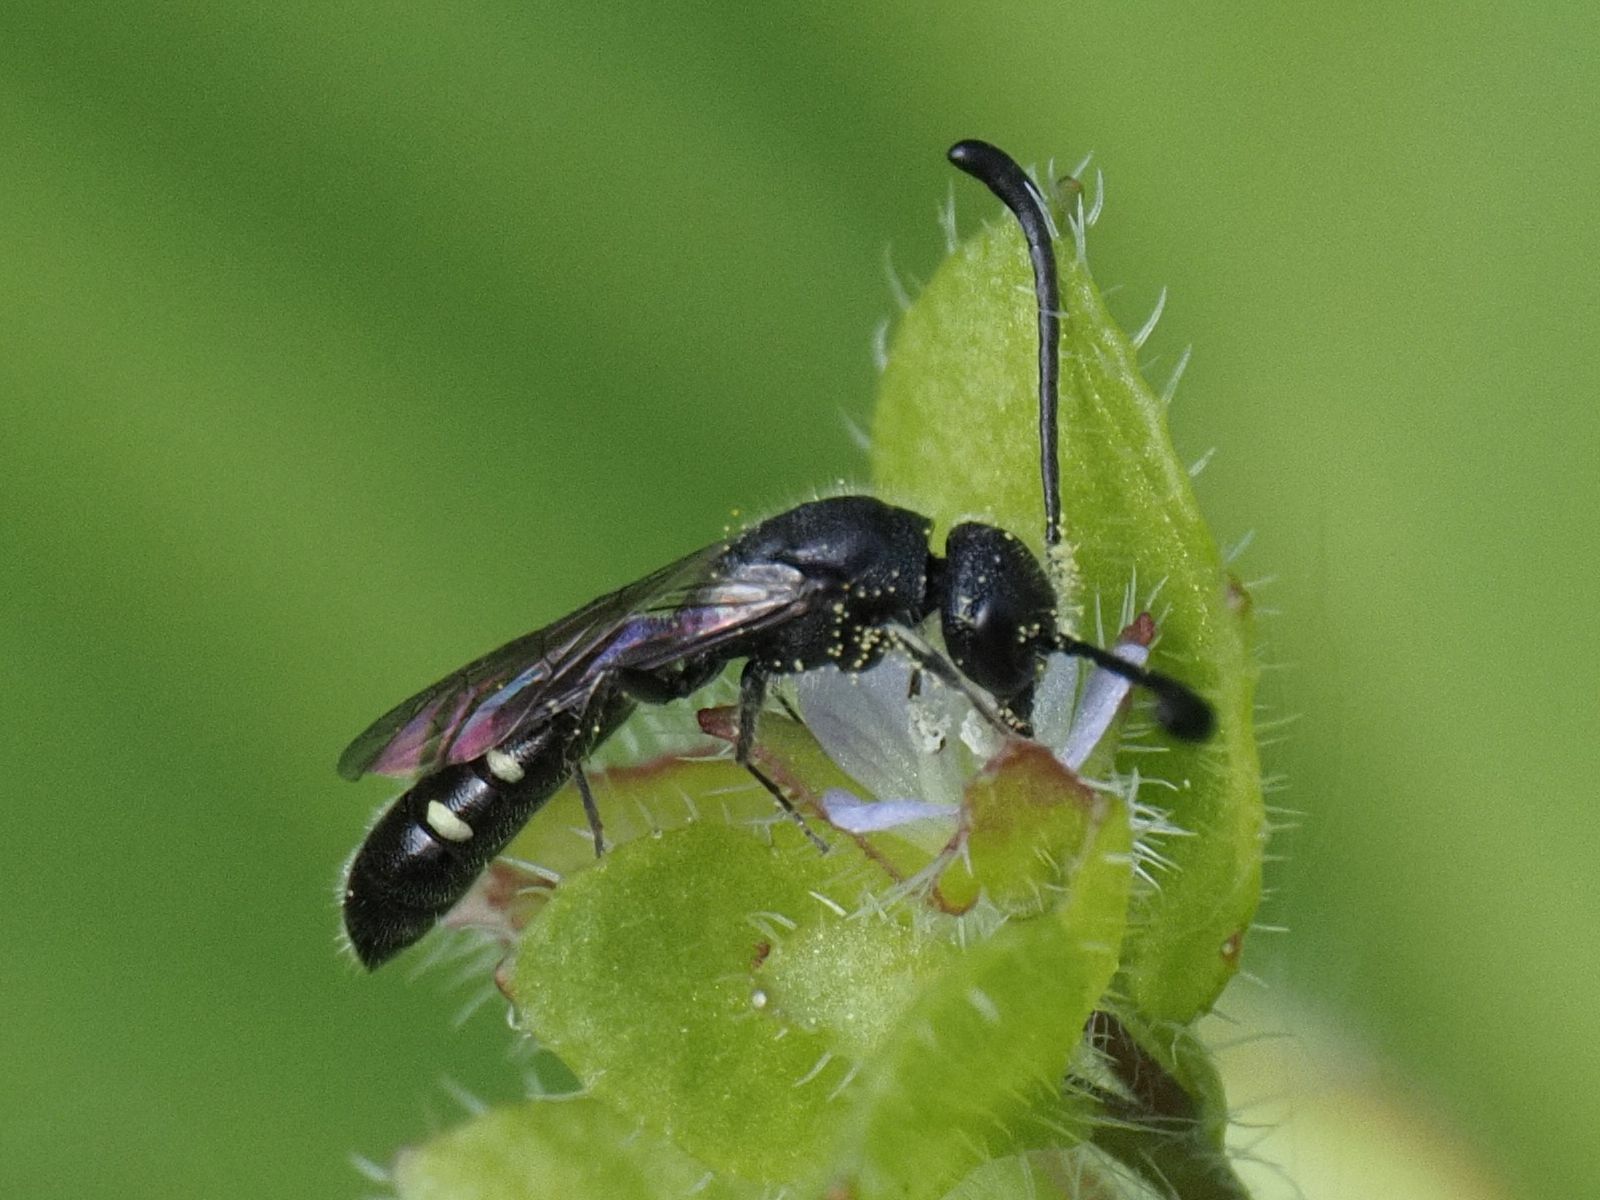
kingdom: Animalia
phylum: Arthropoda
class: Insecta
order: Hymenoptera
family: Sapygidae
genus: Monosapyga
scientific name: Monosapyga clavicornis
